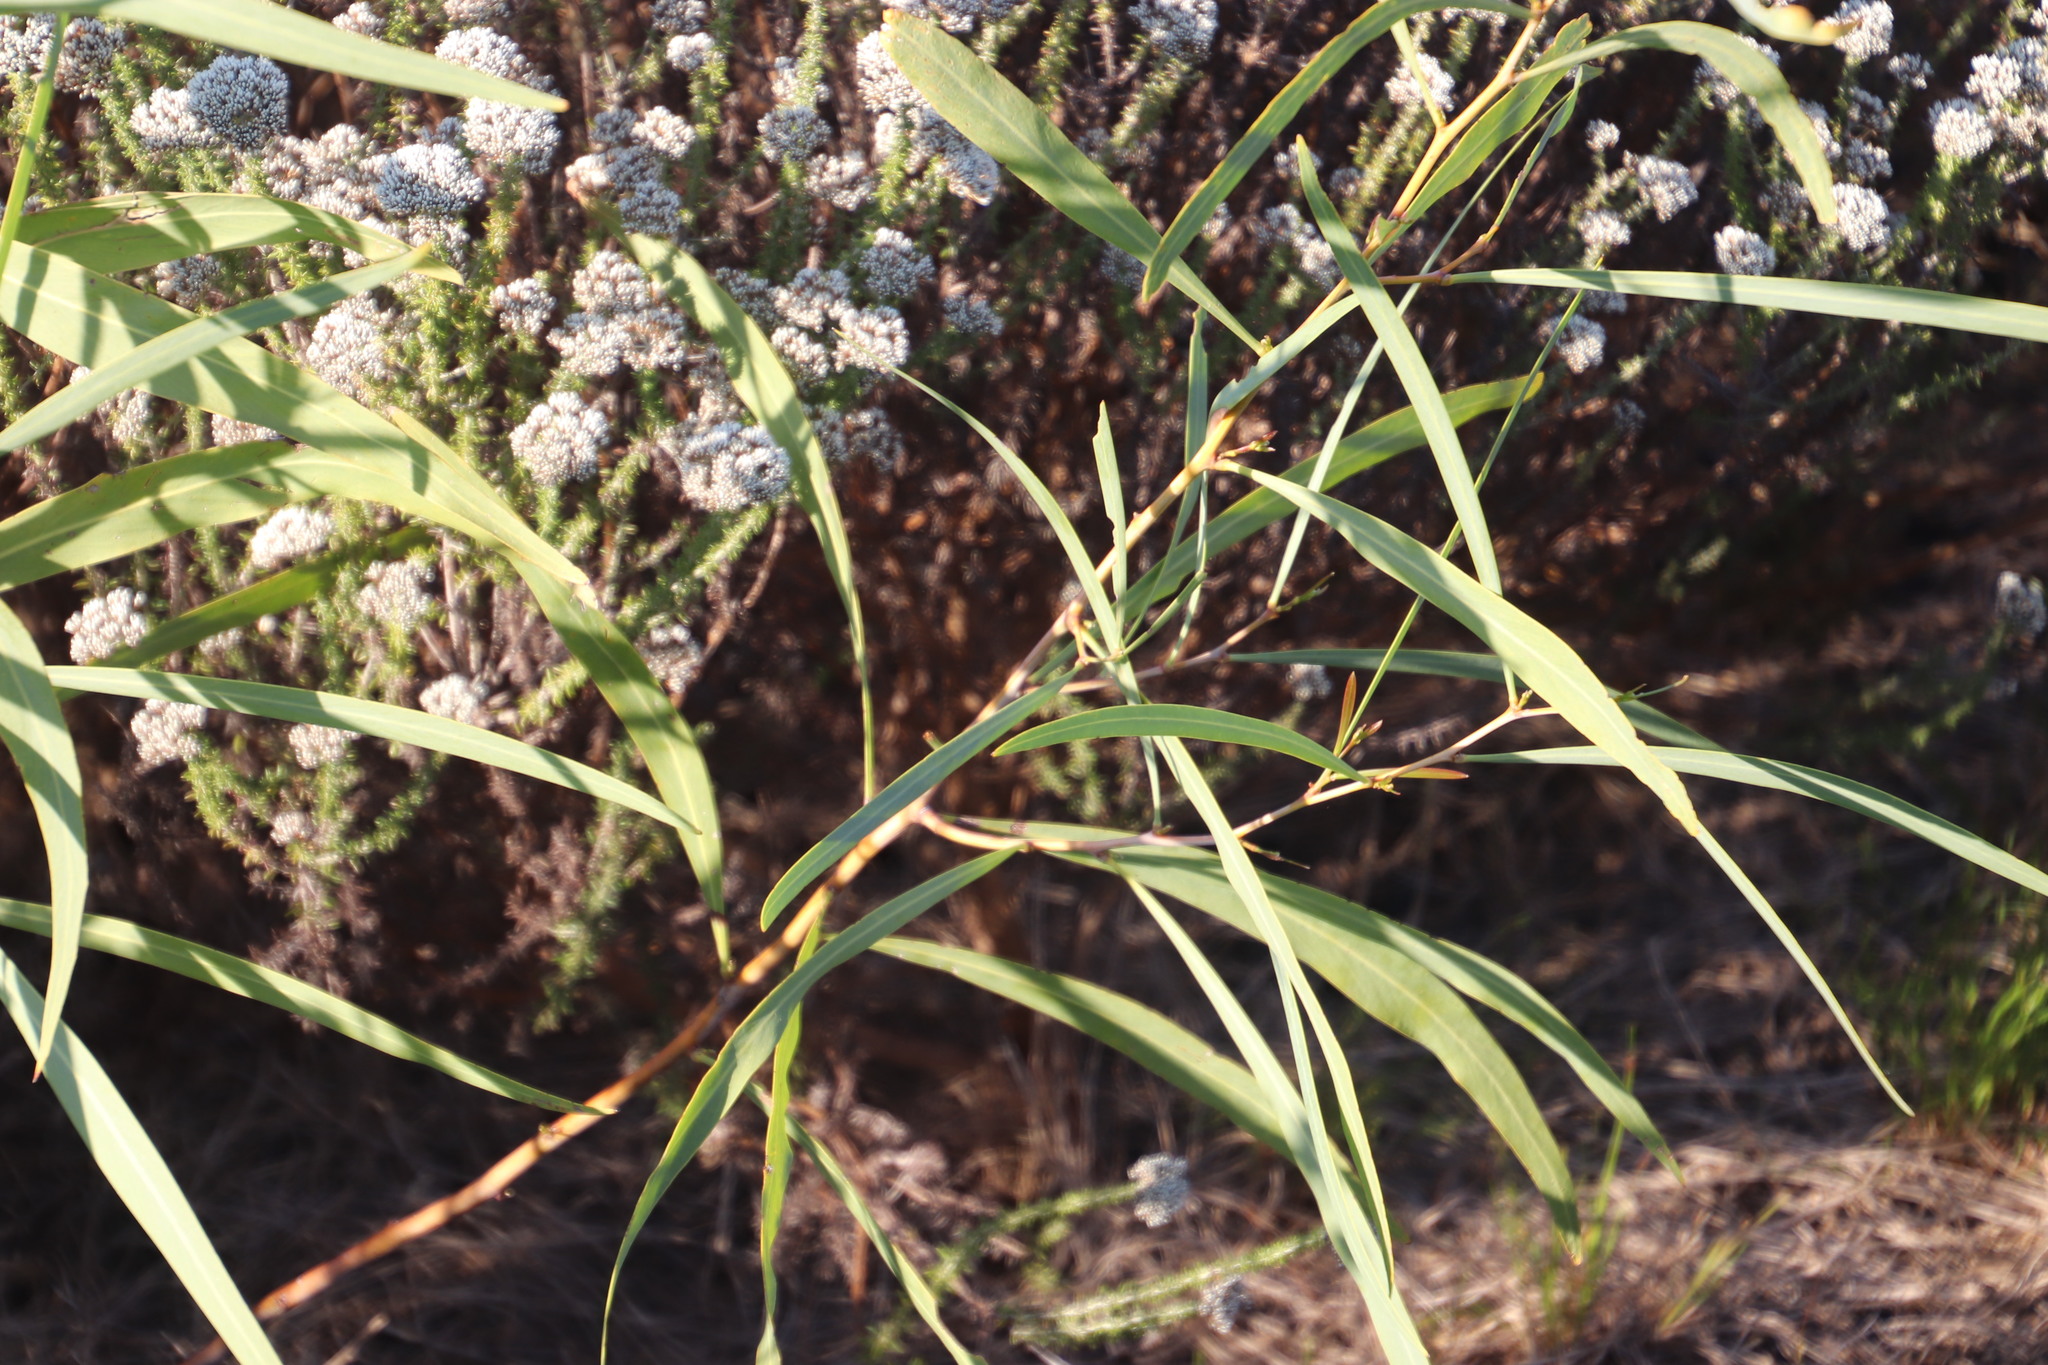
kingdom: Plantae
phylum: Tracheophyta
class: Magnoliopsida
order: Fabales
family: Fabaceae
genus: Acacia
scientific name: Acacia saligna
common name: Orange wattle
